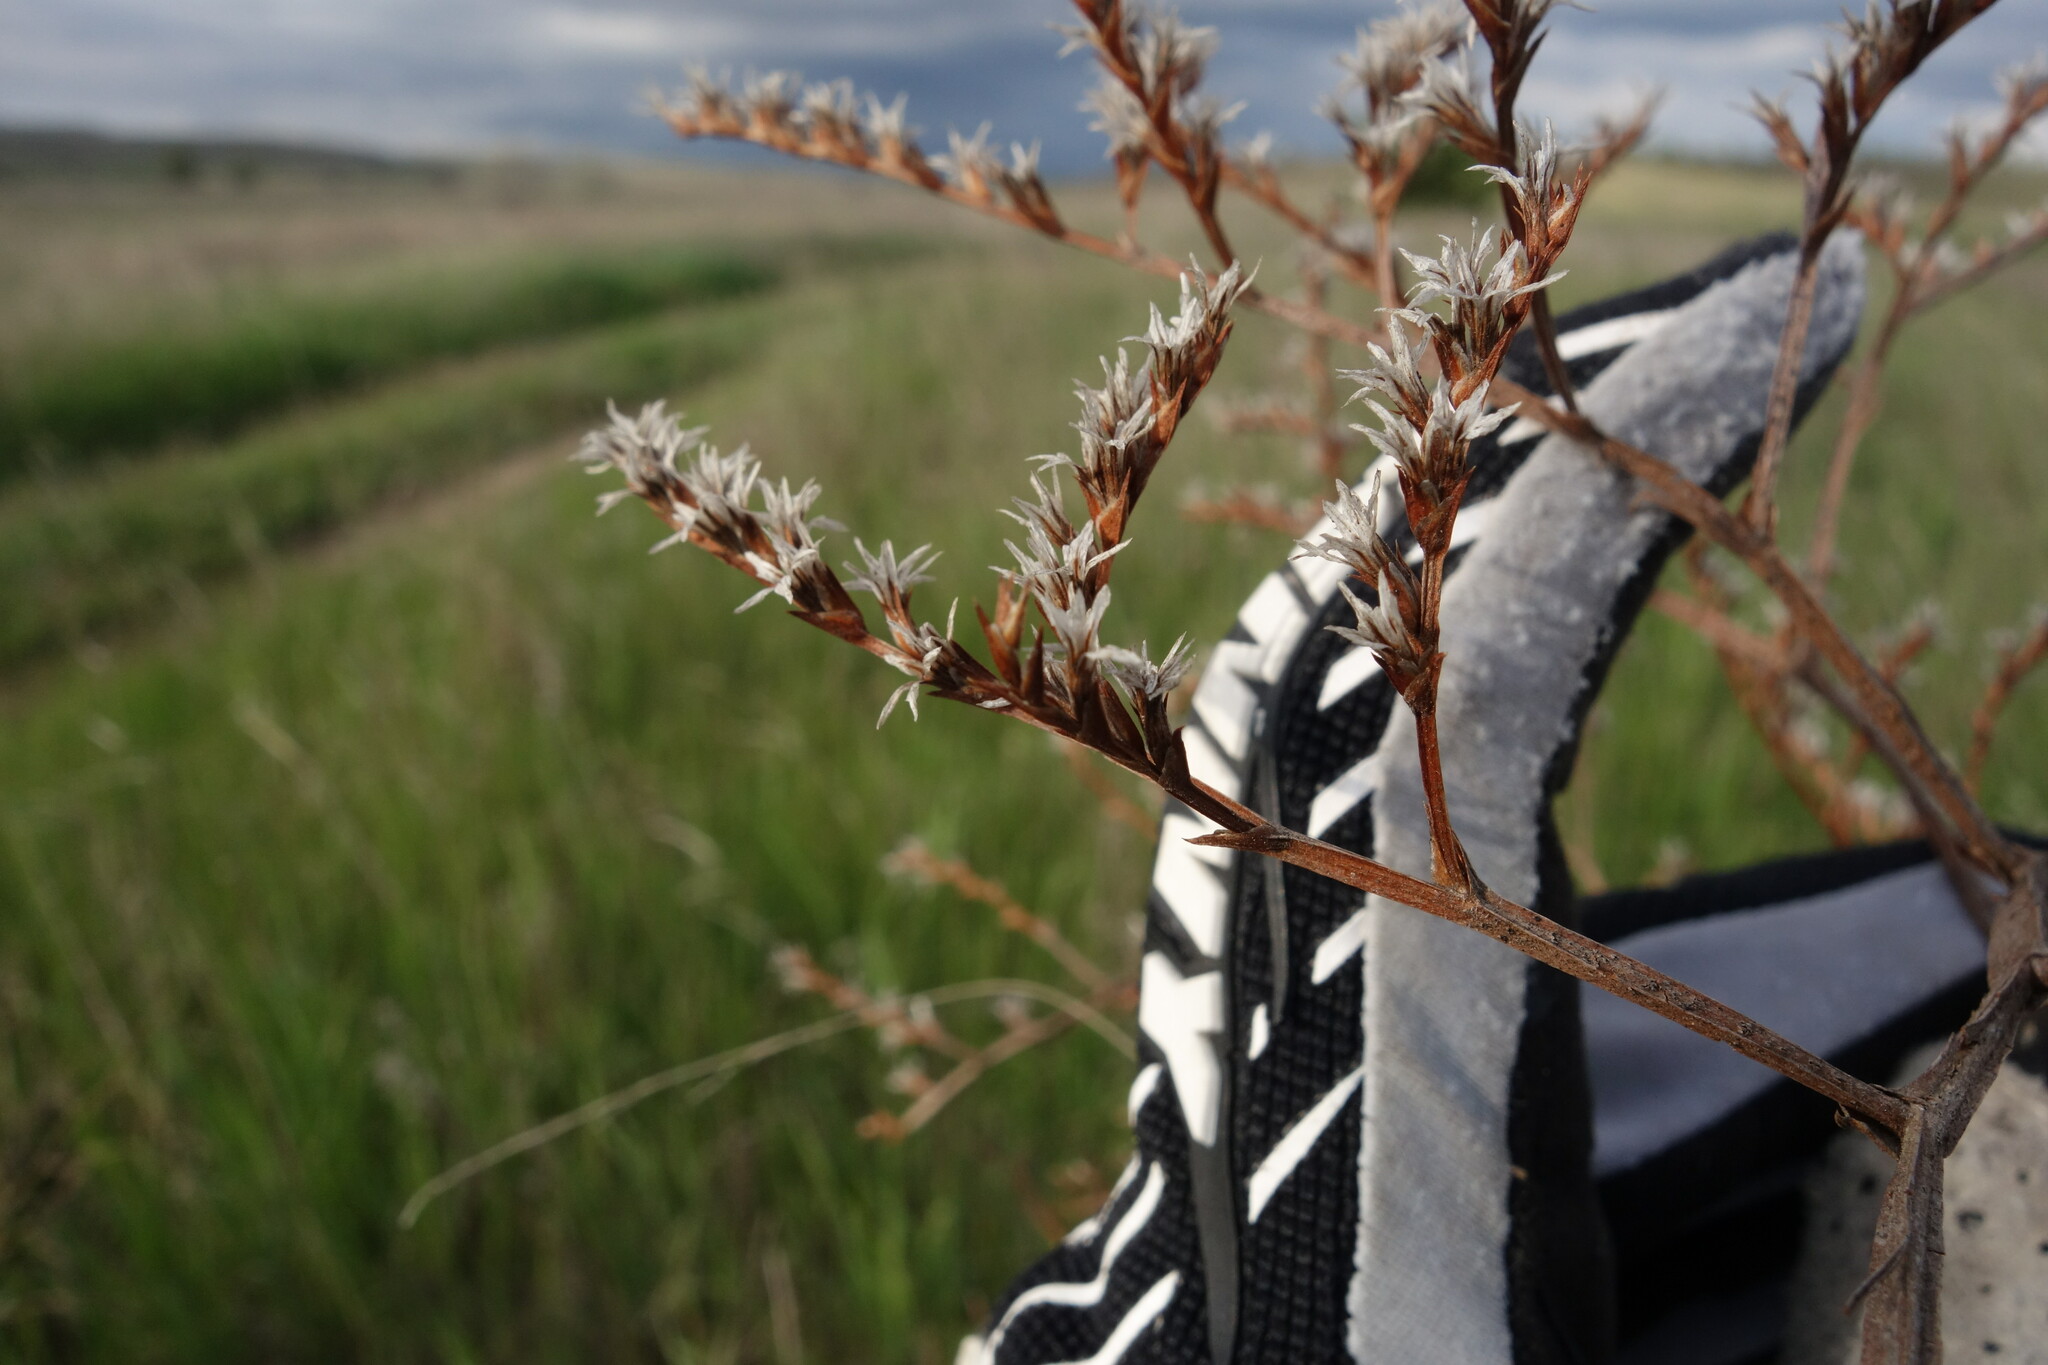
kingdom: Plantae
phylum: Tracheophyta
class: Magnoliopsida
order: Caryophyllales
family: Plumbaginaceae
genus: Goniolimon
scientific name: Goniolimon tataricum
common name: Statice
